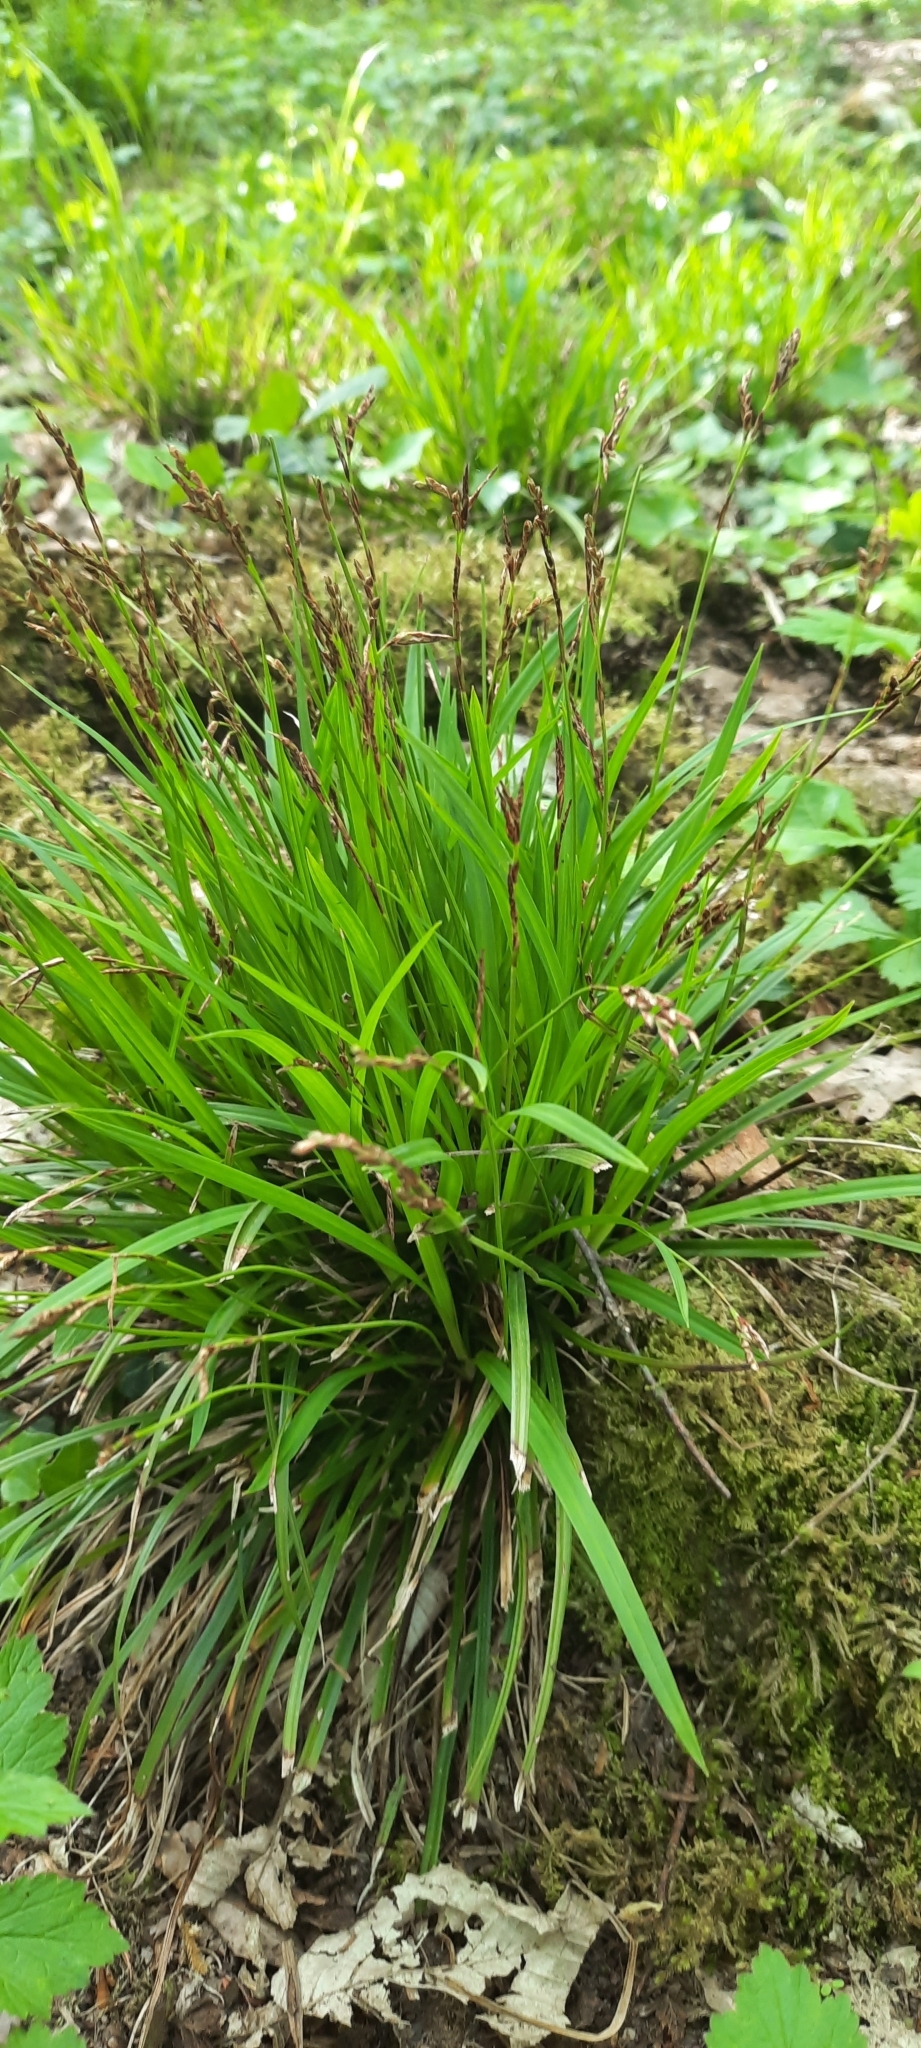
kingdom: Plantae
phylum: Tracheophyta
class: Liliopsida
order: Poales
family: Cyperaceae
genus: Carex
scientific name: Carex digitata
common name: Fingered sedge
